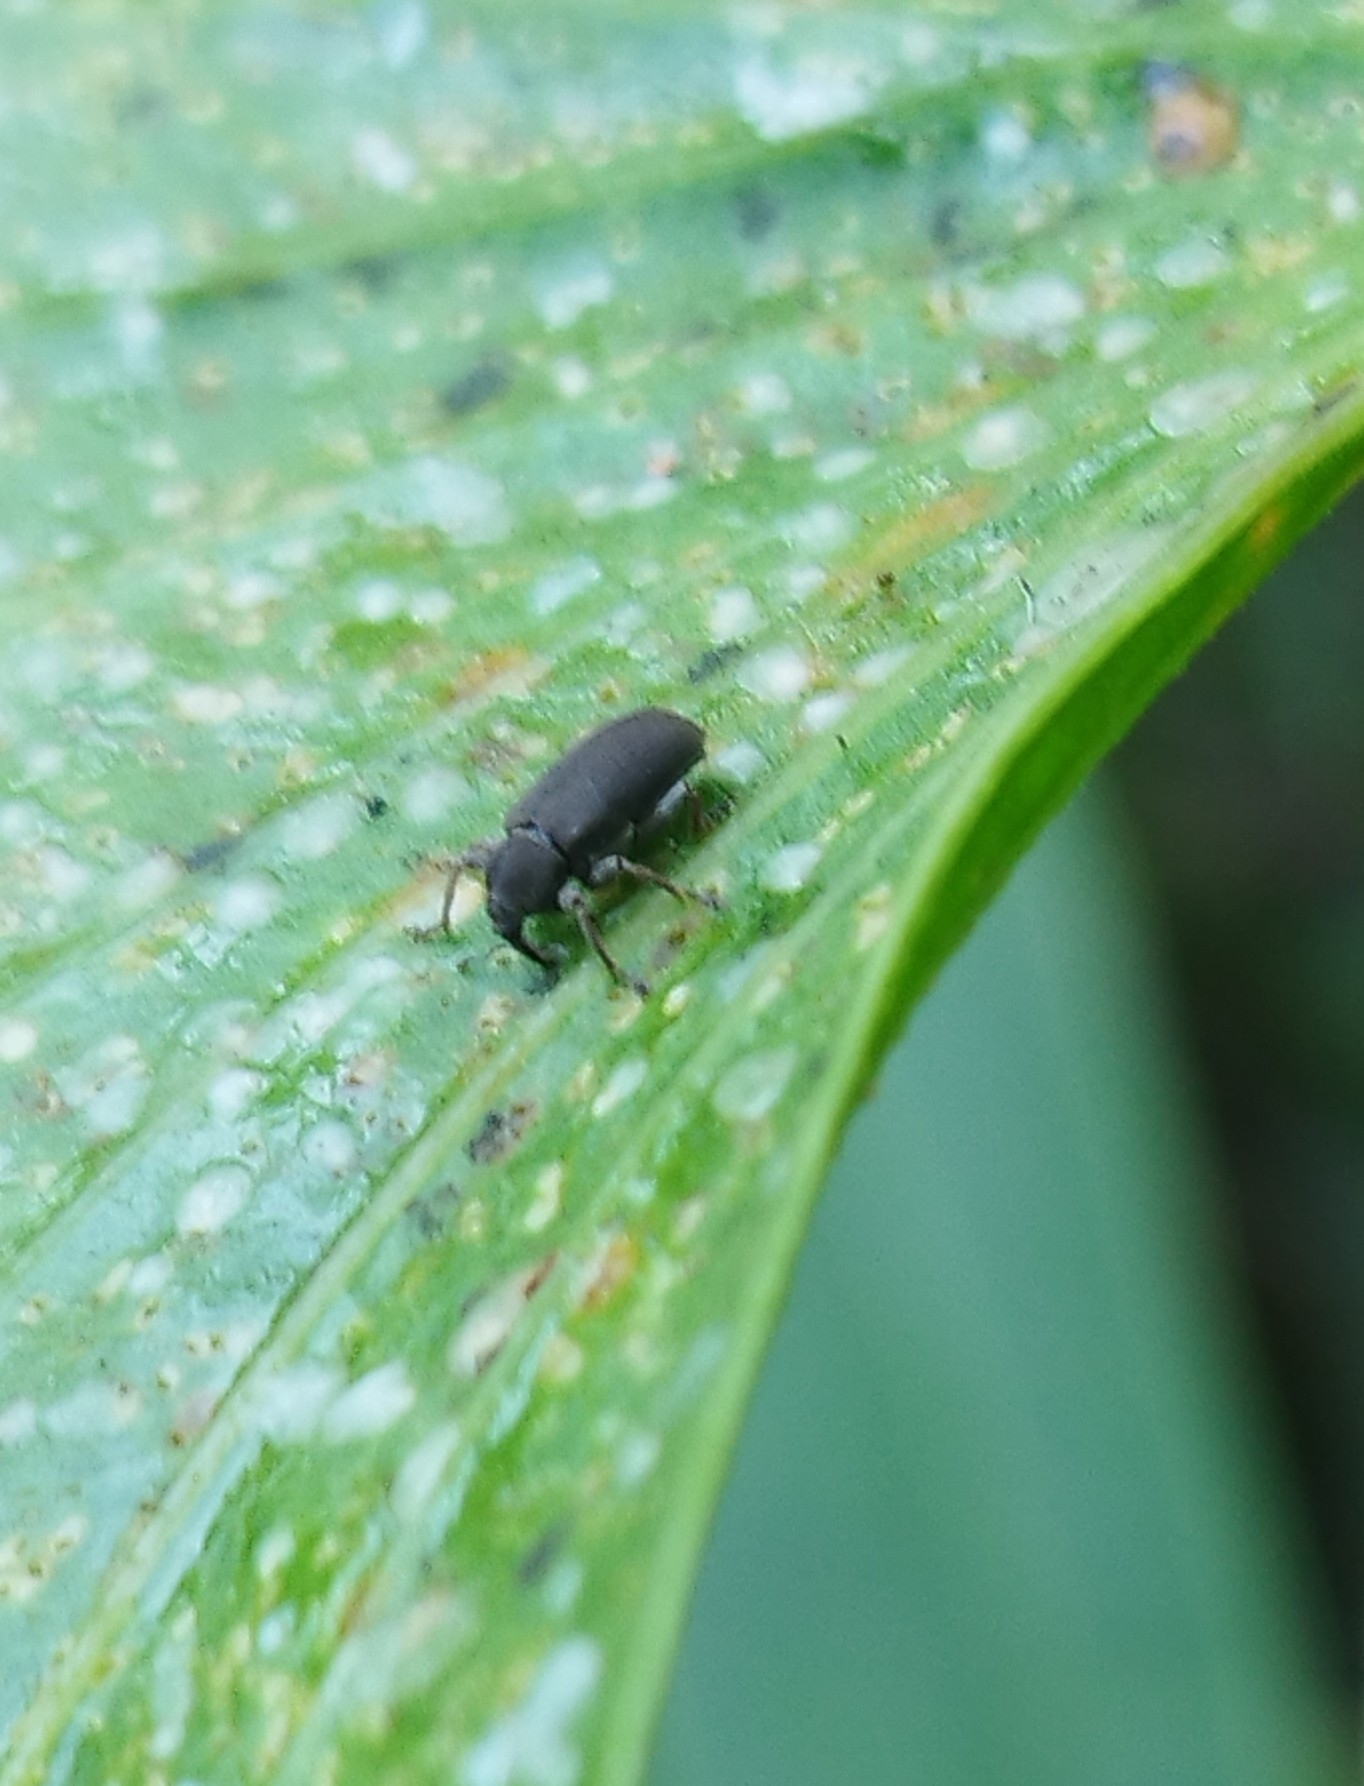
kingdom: Animalia
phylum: Arthropoda
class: Insecta
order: Coleoptera
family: Brachyceridae
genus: Hypselus
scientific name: Hypselus ater
